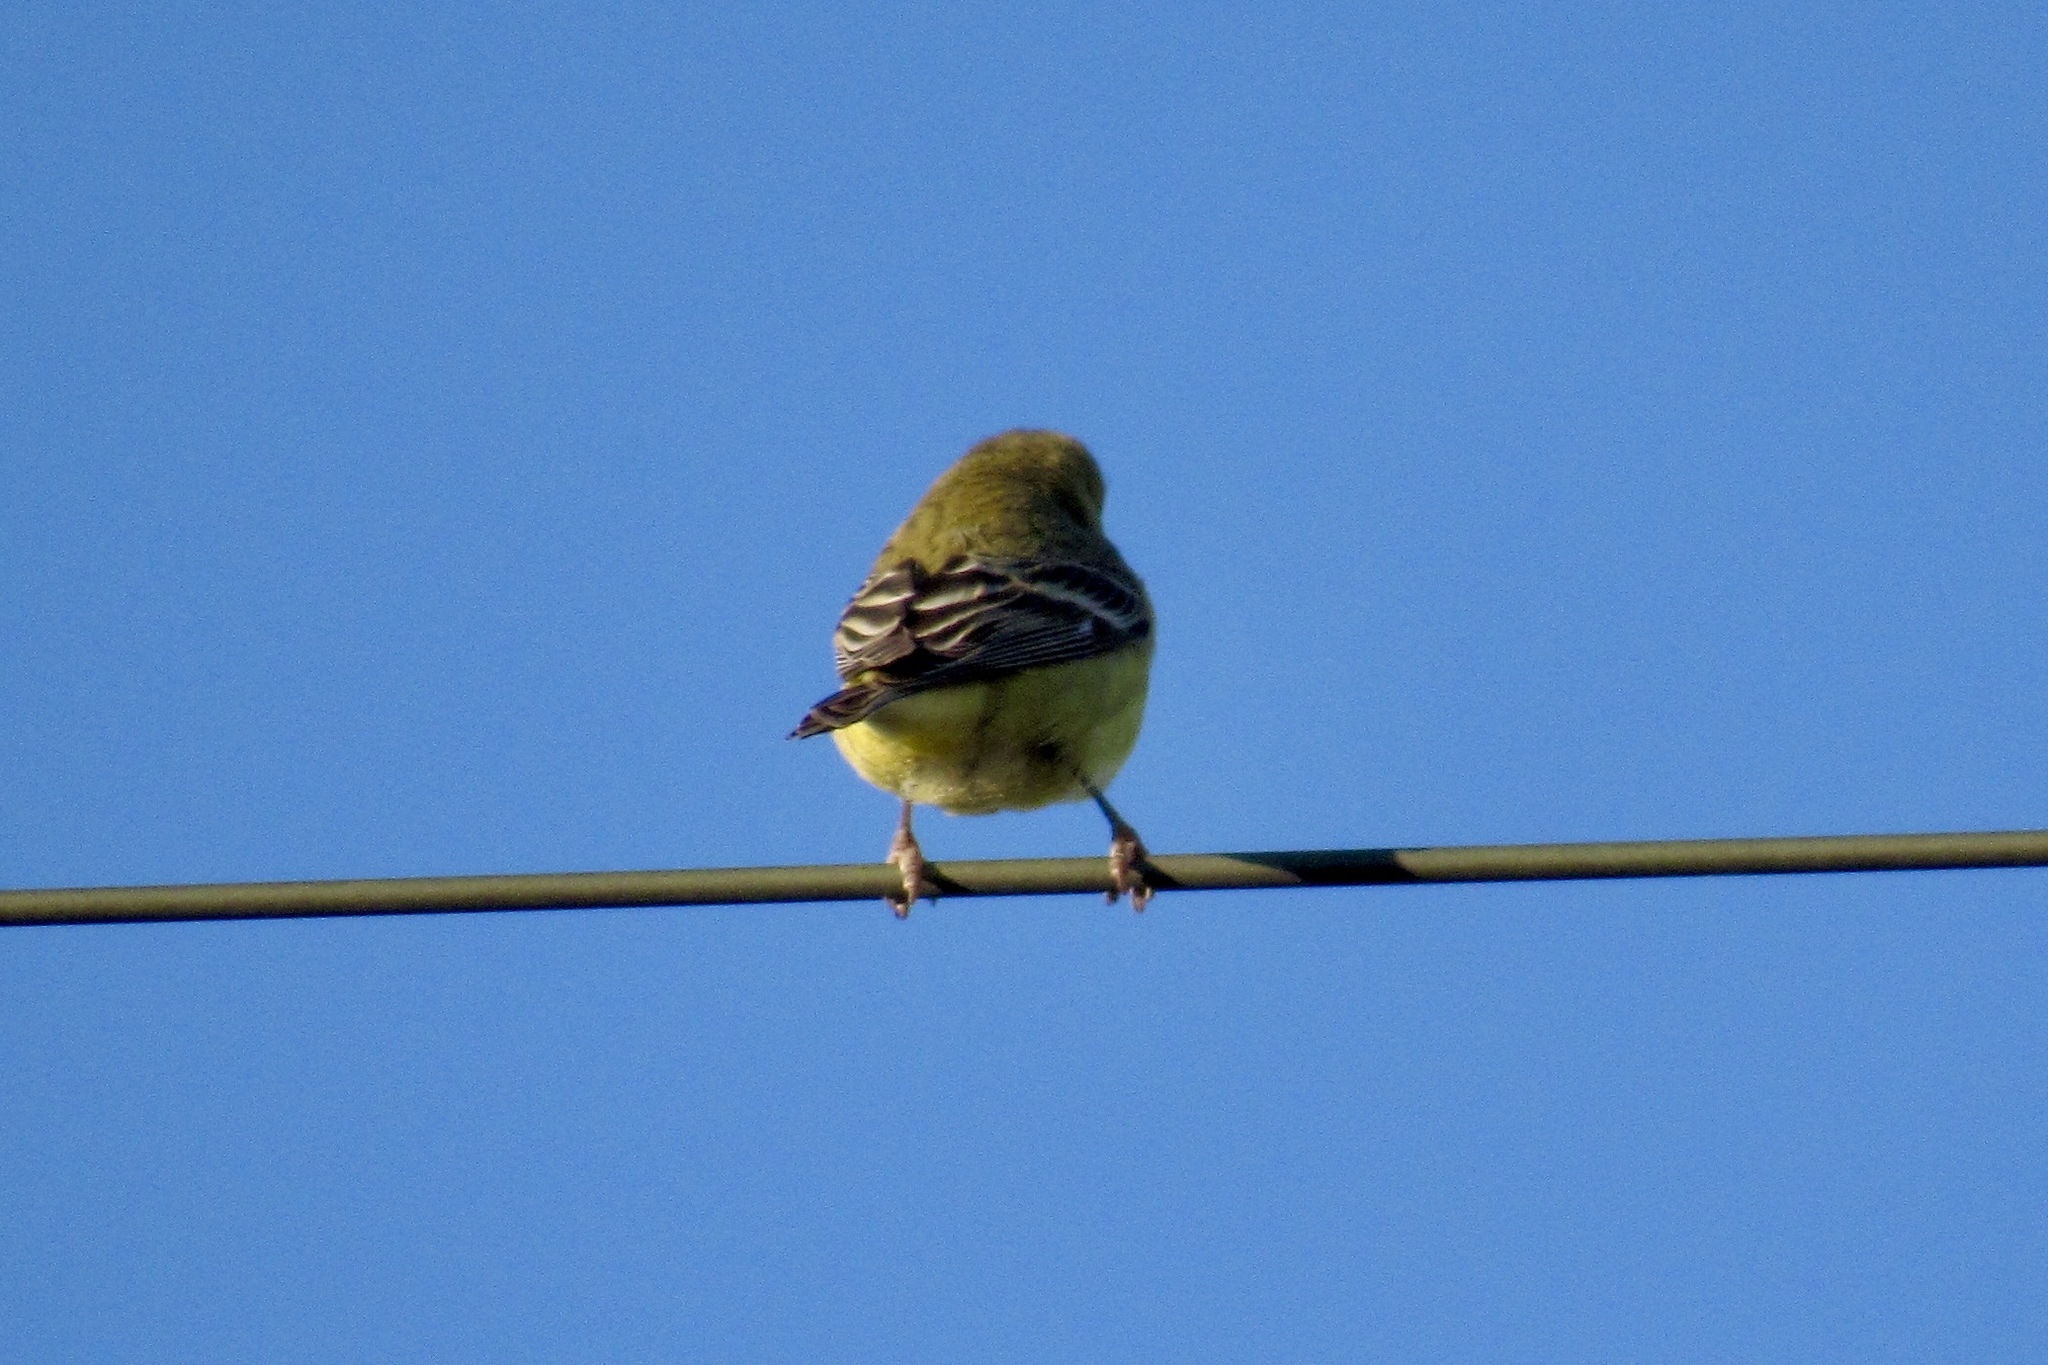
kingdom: Animalia
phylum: Chordata
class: Aves
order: Passeriformes
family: Fringillidae
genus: Spinus
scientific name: Spinus psaltria
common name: Lesser goldfinch
